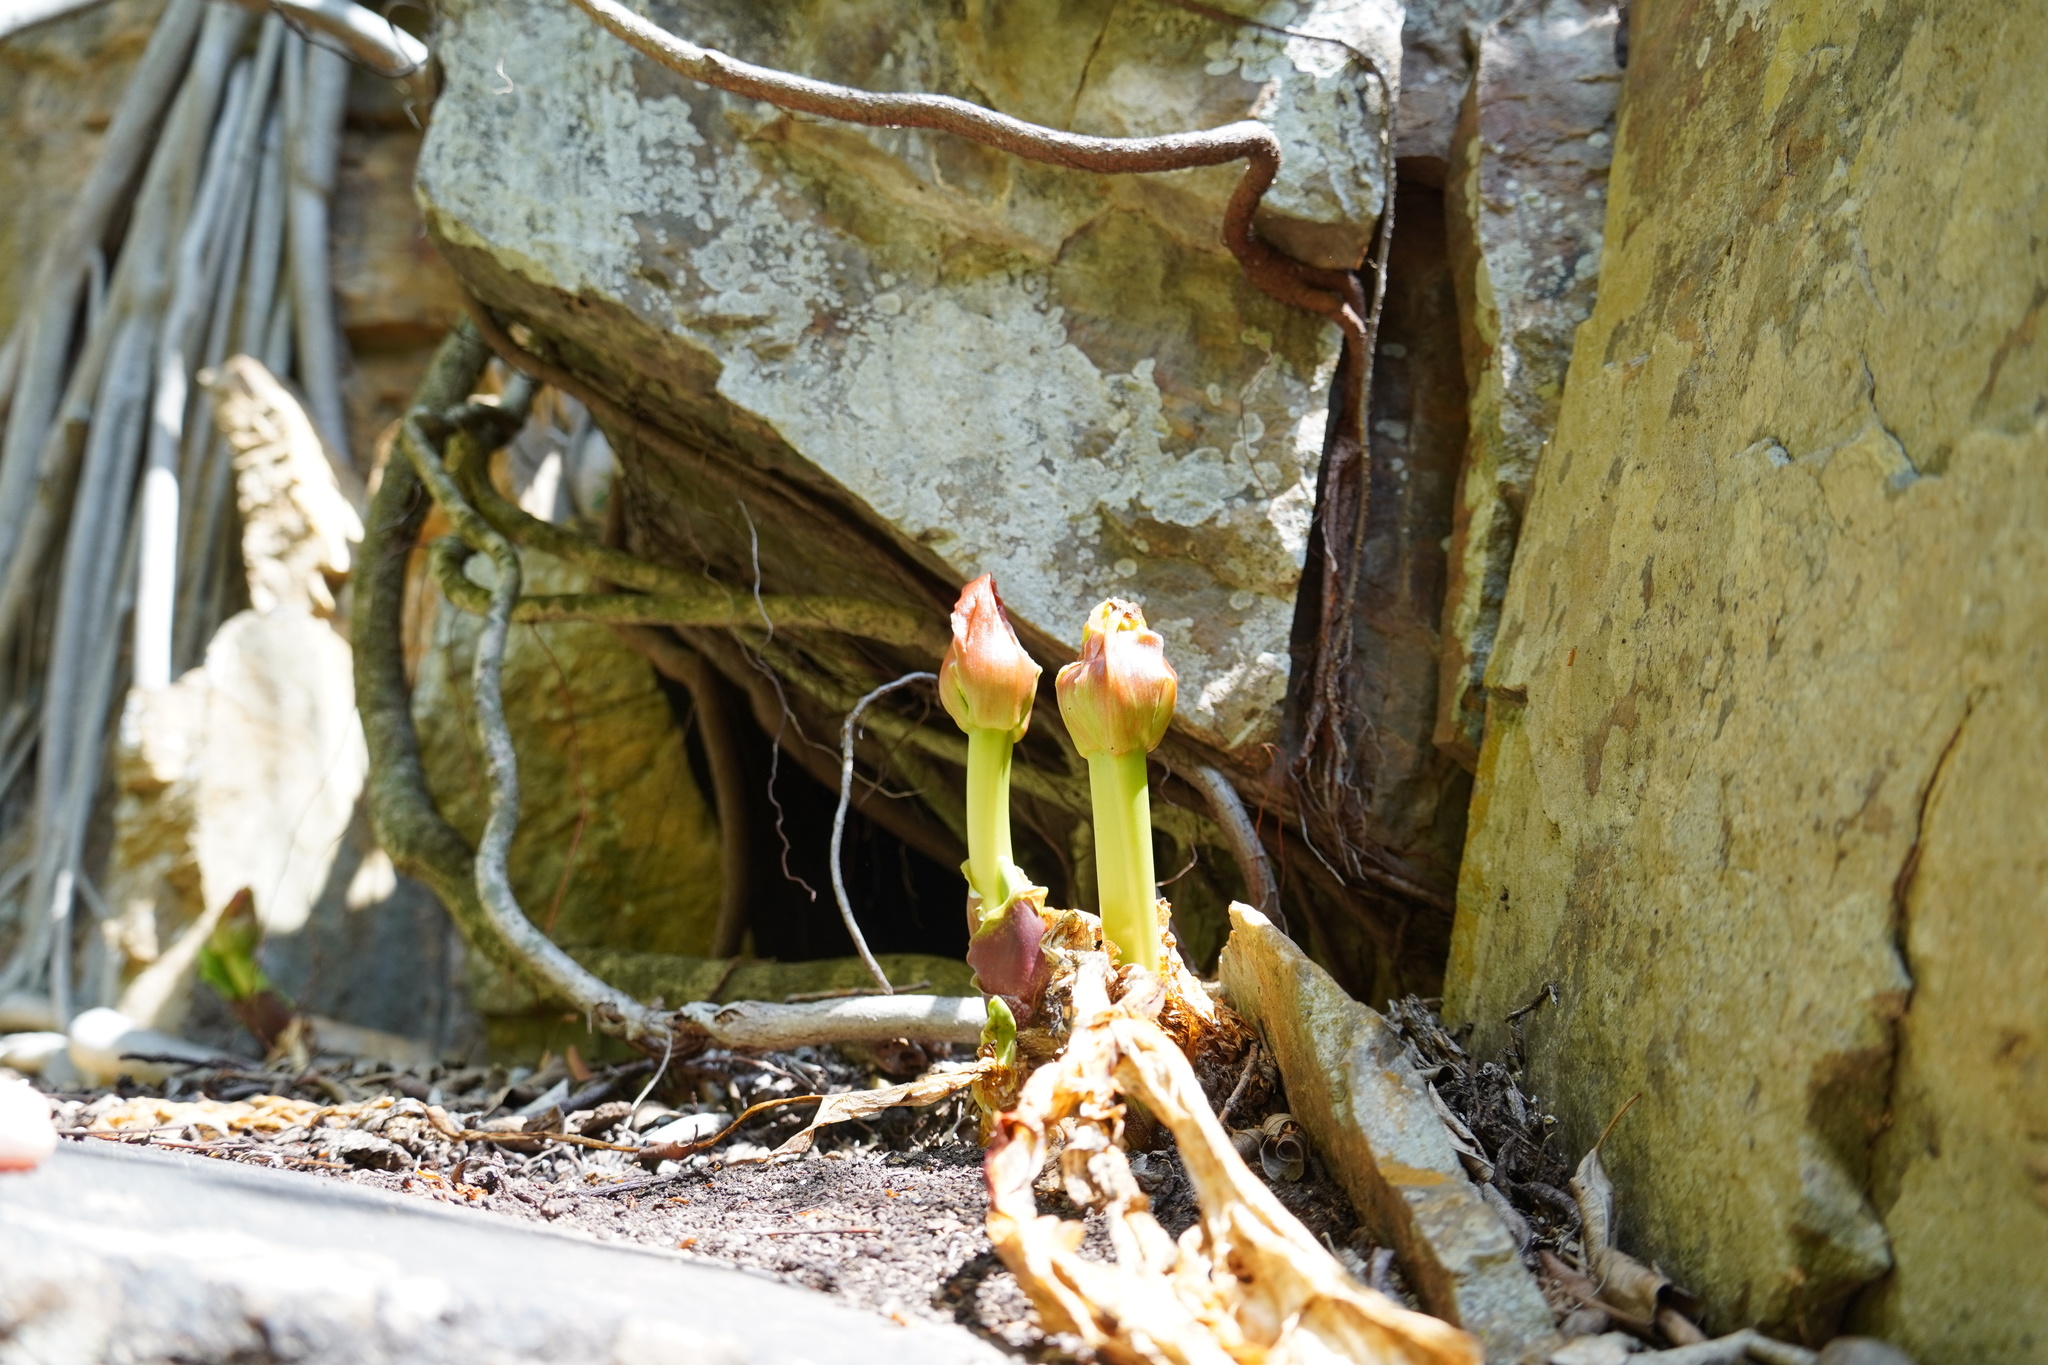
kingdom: Plantae
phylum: Tracheophyta
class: Liliopsida
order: Asparagales
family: Amaryllidaceae
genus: Scadoxus
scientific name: Scadoxus puniceus
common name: Royal-paintbrush
